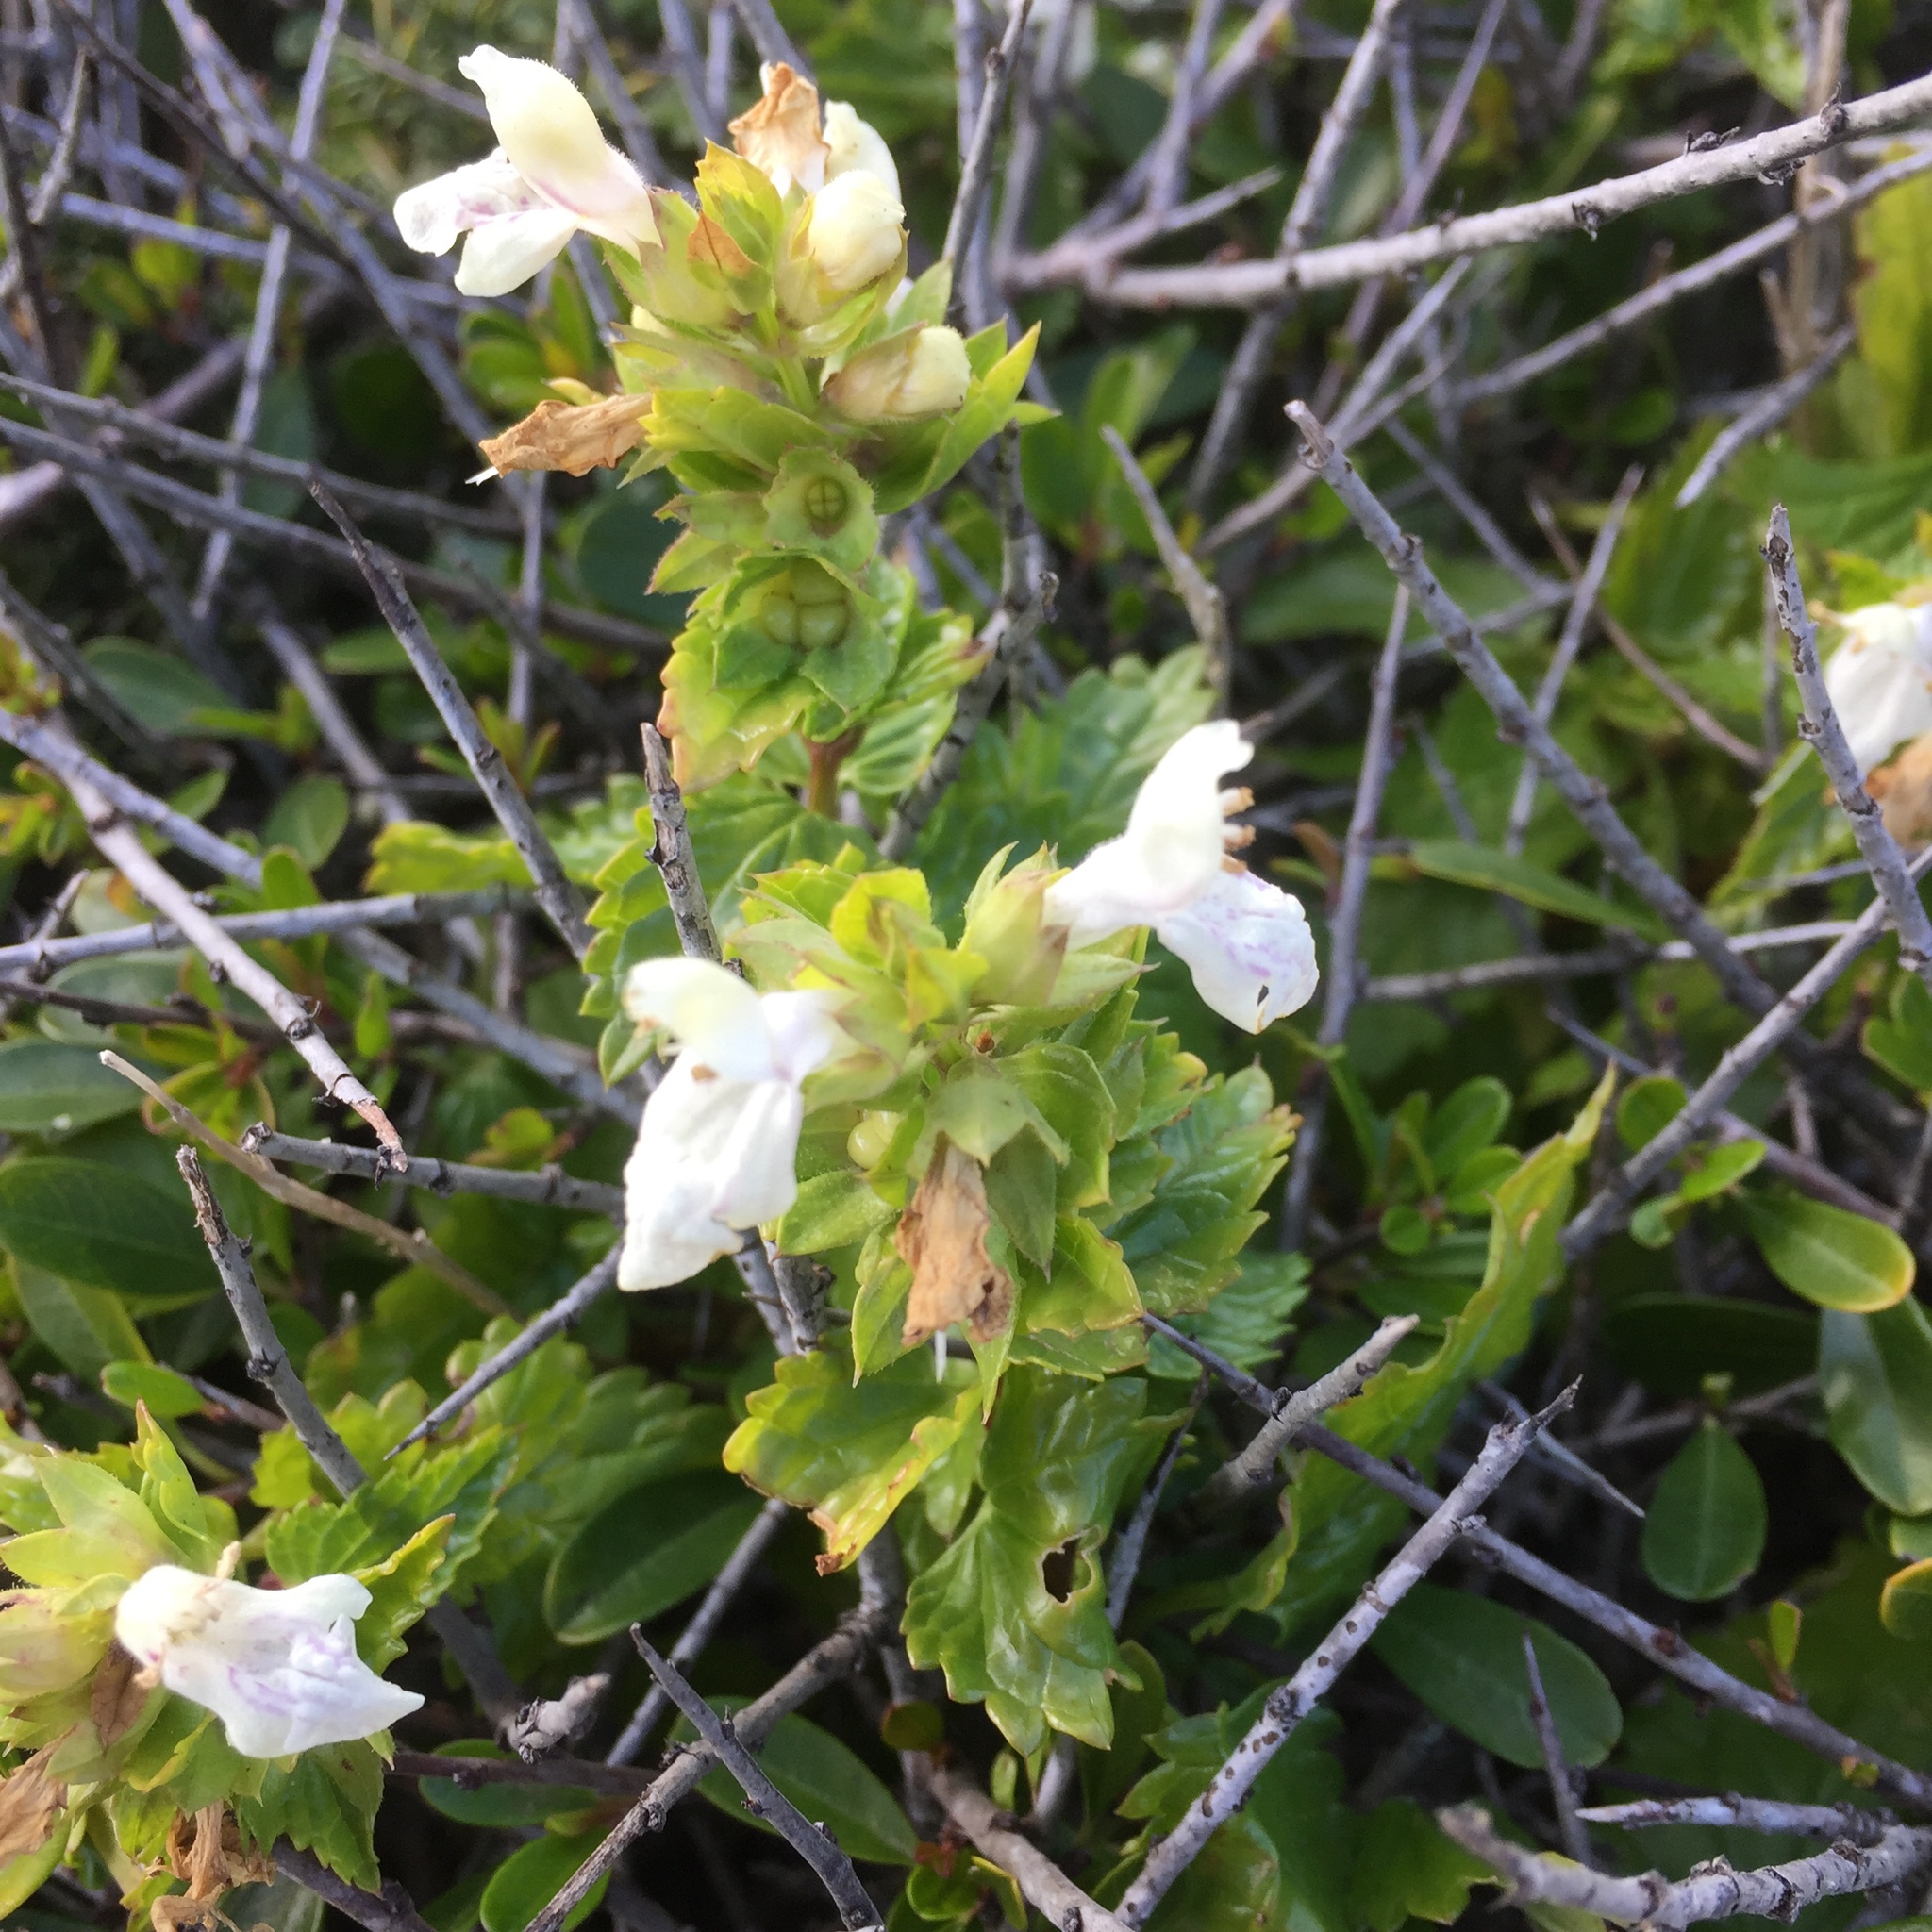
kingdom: Plantae
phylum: Tracheophyta
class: Magnoliopsida
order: Lamiales
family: Lamiaceae
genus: Prasium
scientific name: Prasium majus
